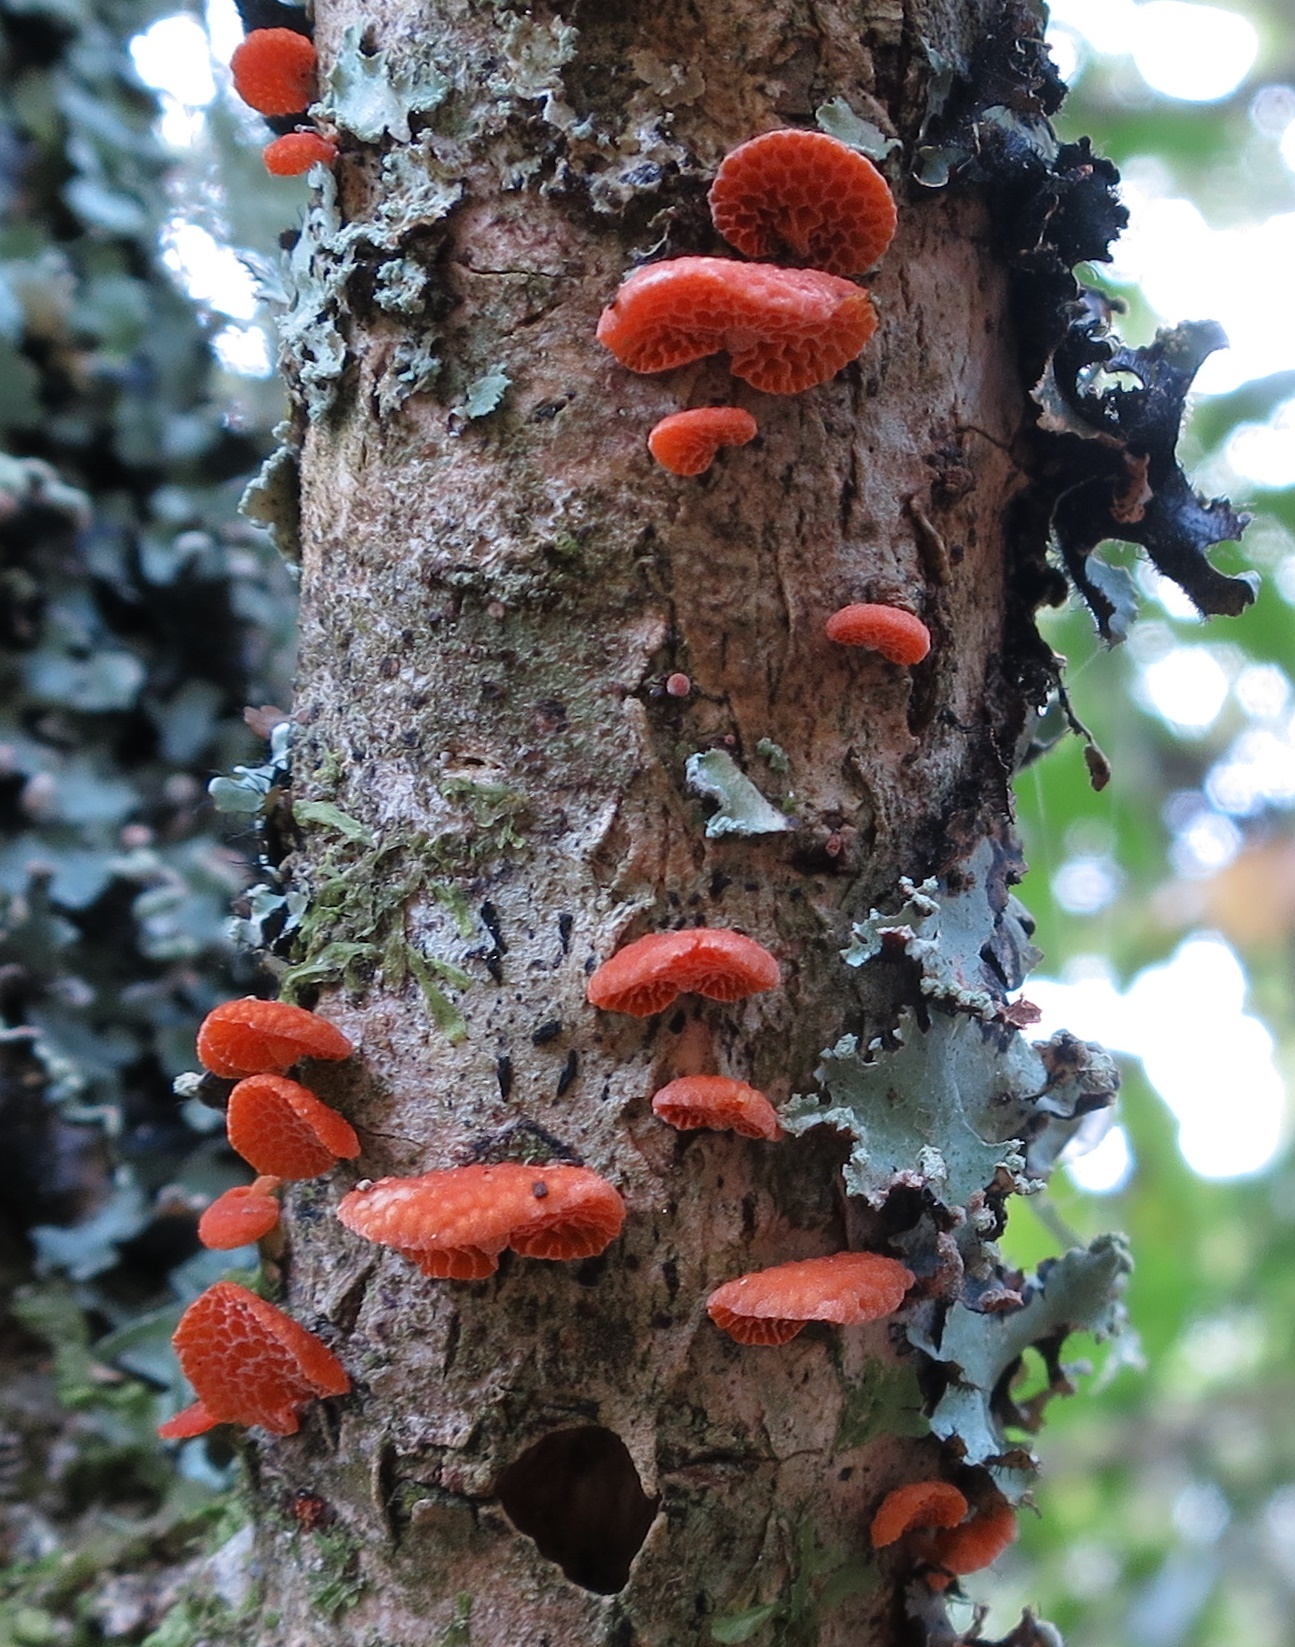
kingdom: Fungi
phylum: Basidiomycota
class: Agaricomycetes
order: Agaricales
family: Mycenaceae
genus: Favolaschia
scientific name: Favolaschia claudopus
